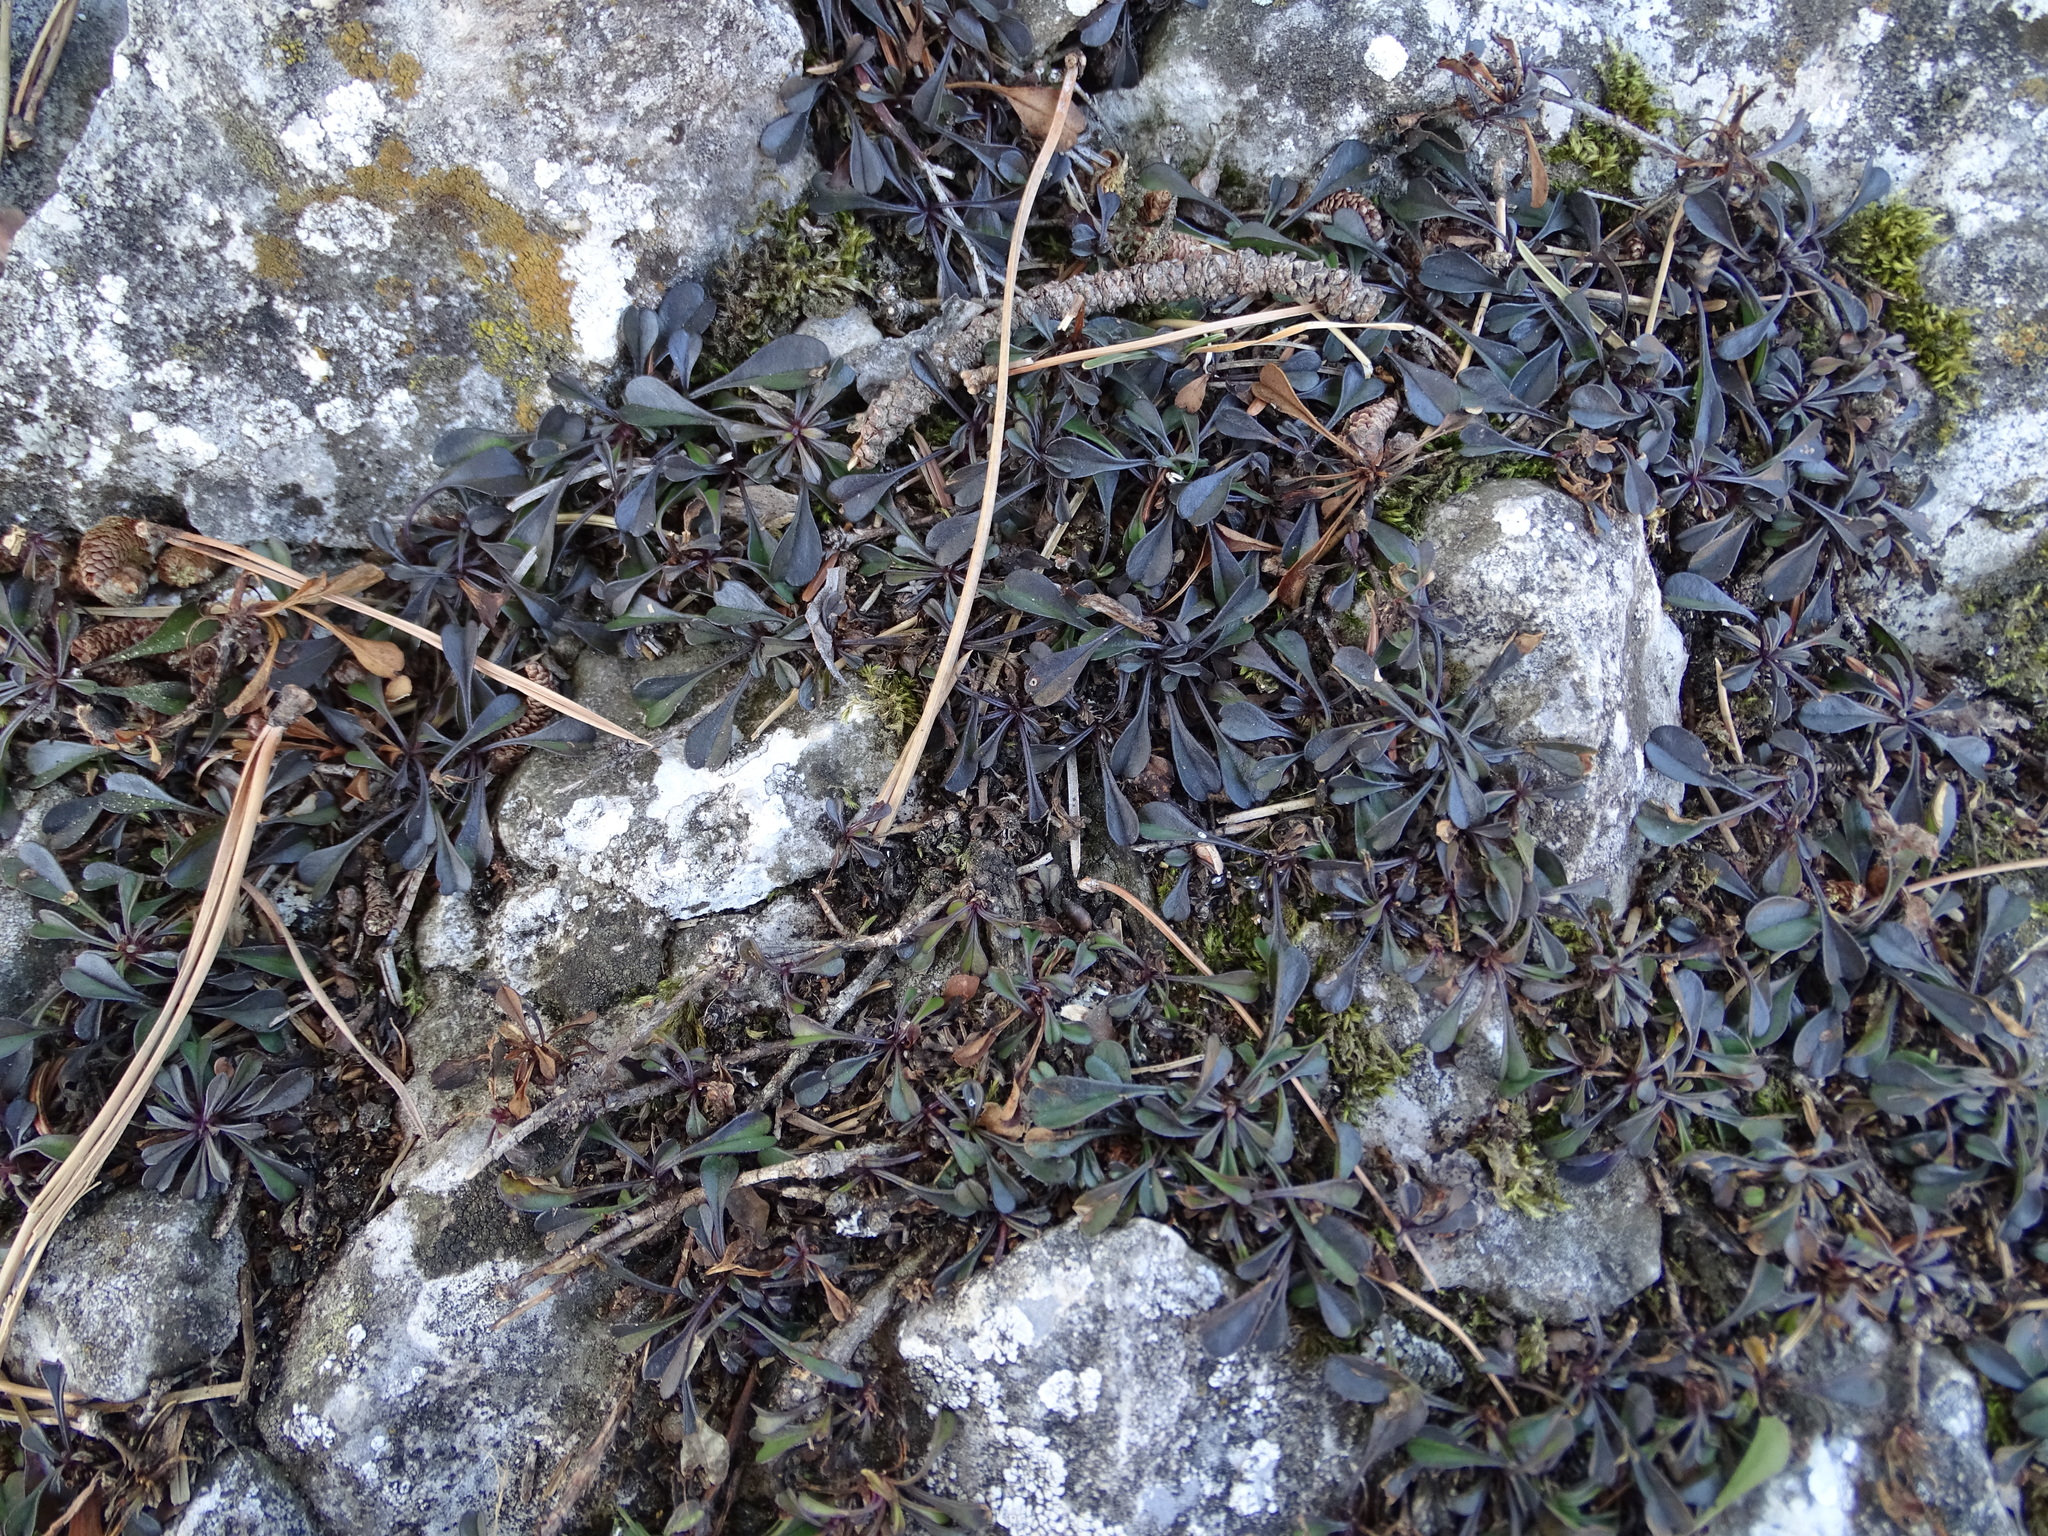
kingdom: Plantae
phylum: Tracheophyta
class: Magnoliopsida
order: Lamiales
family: Plantaginaceae
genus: Globularia
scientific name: Globularia cordifolia
